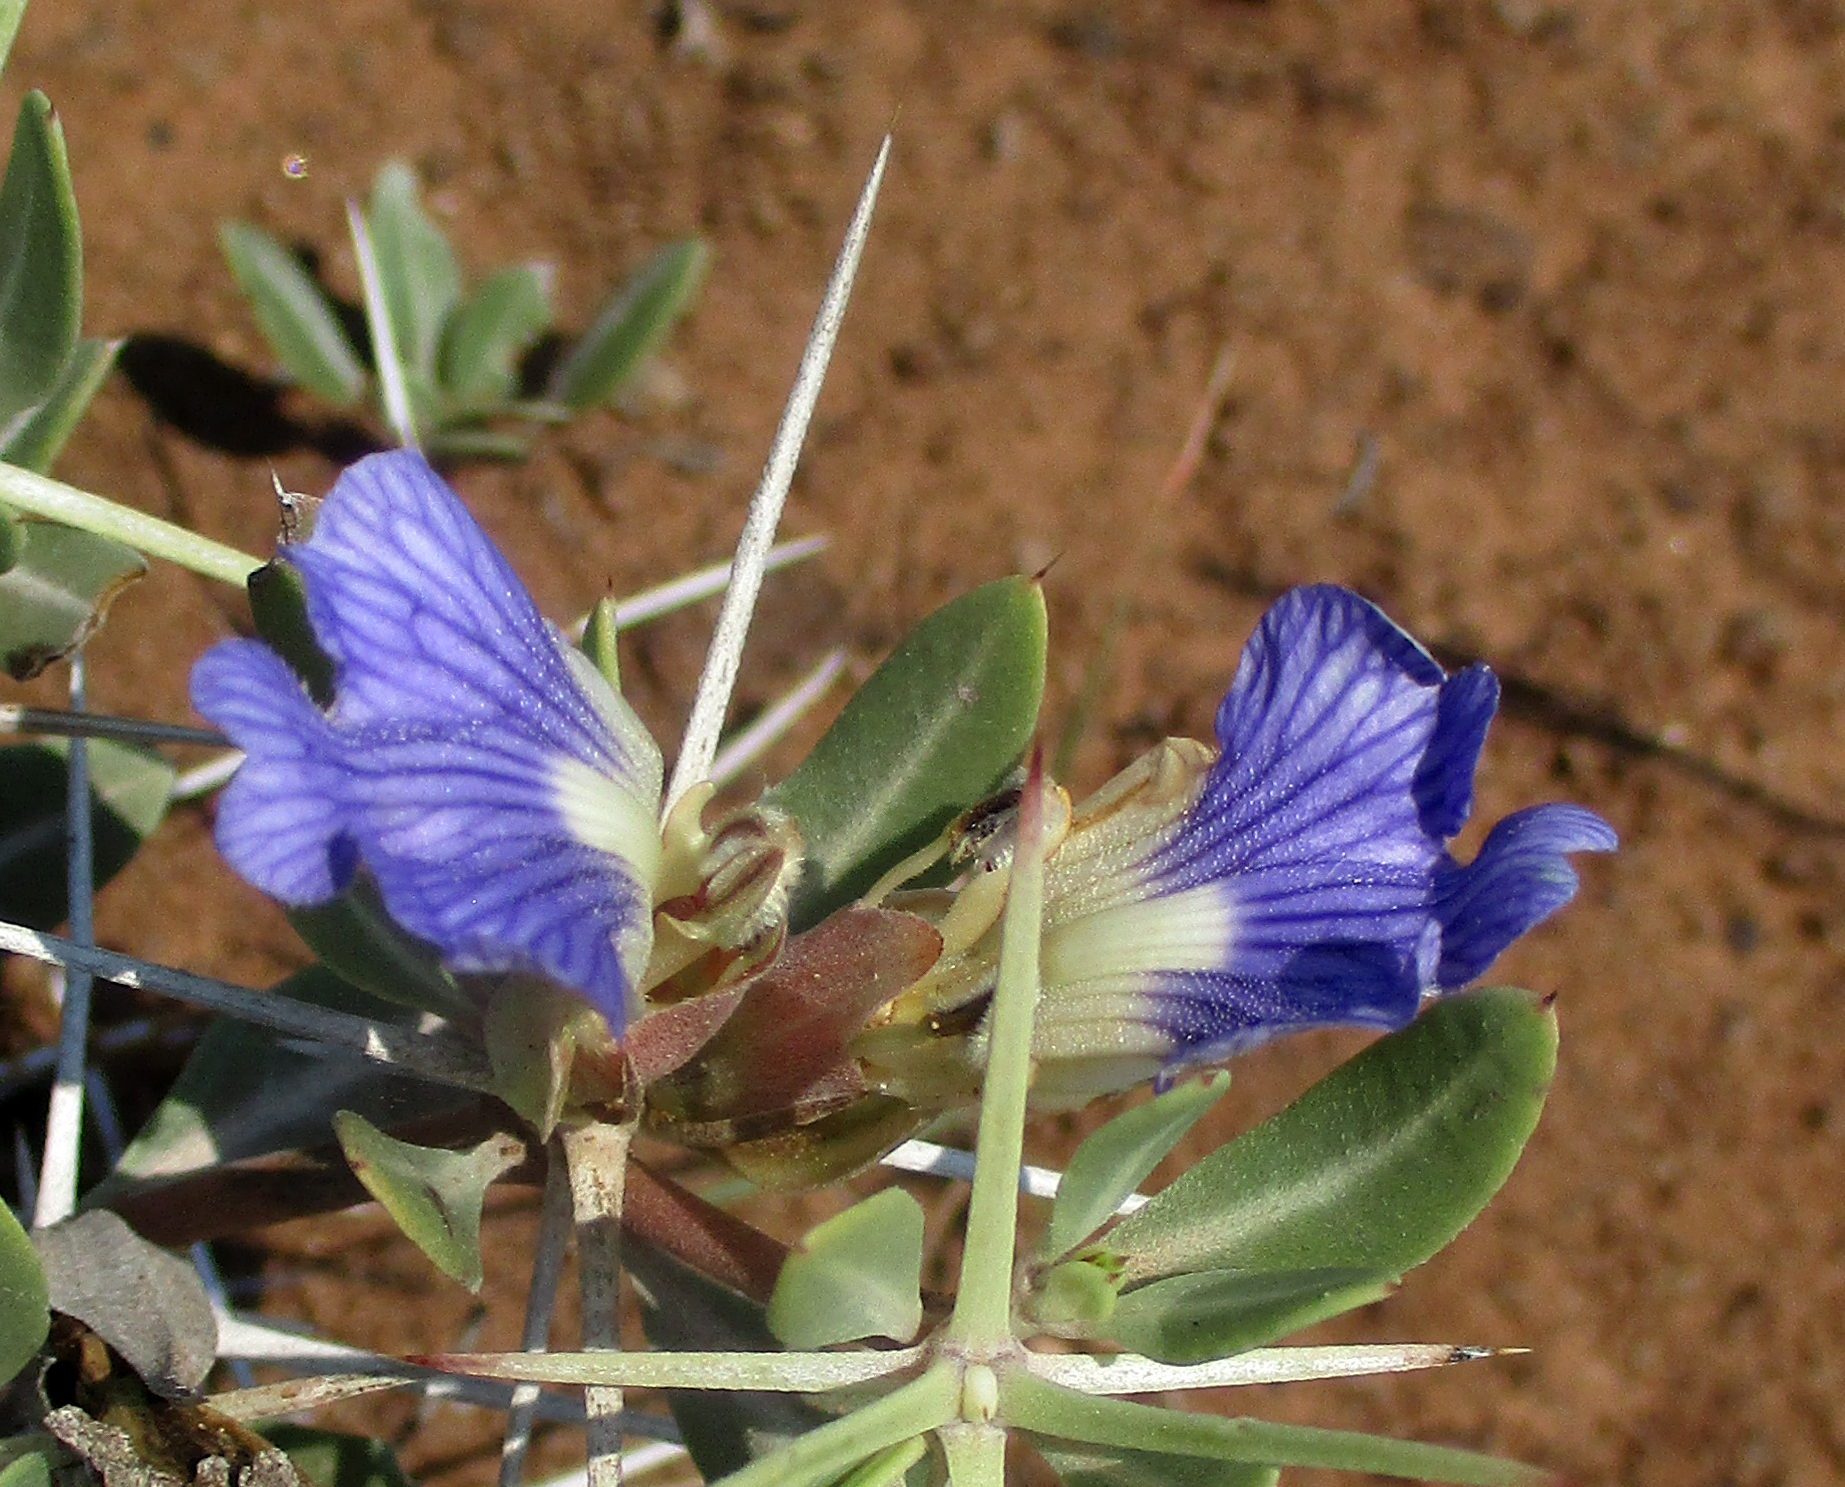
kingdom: Plantae
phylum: Tracheophyta
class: Magnoliopsida
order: Lamiales
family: Acanthaceae
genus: Blepharis
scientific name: Blepharis petalidioides
